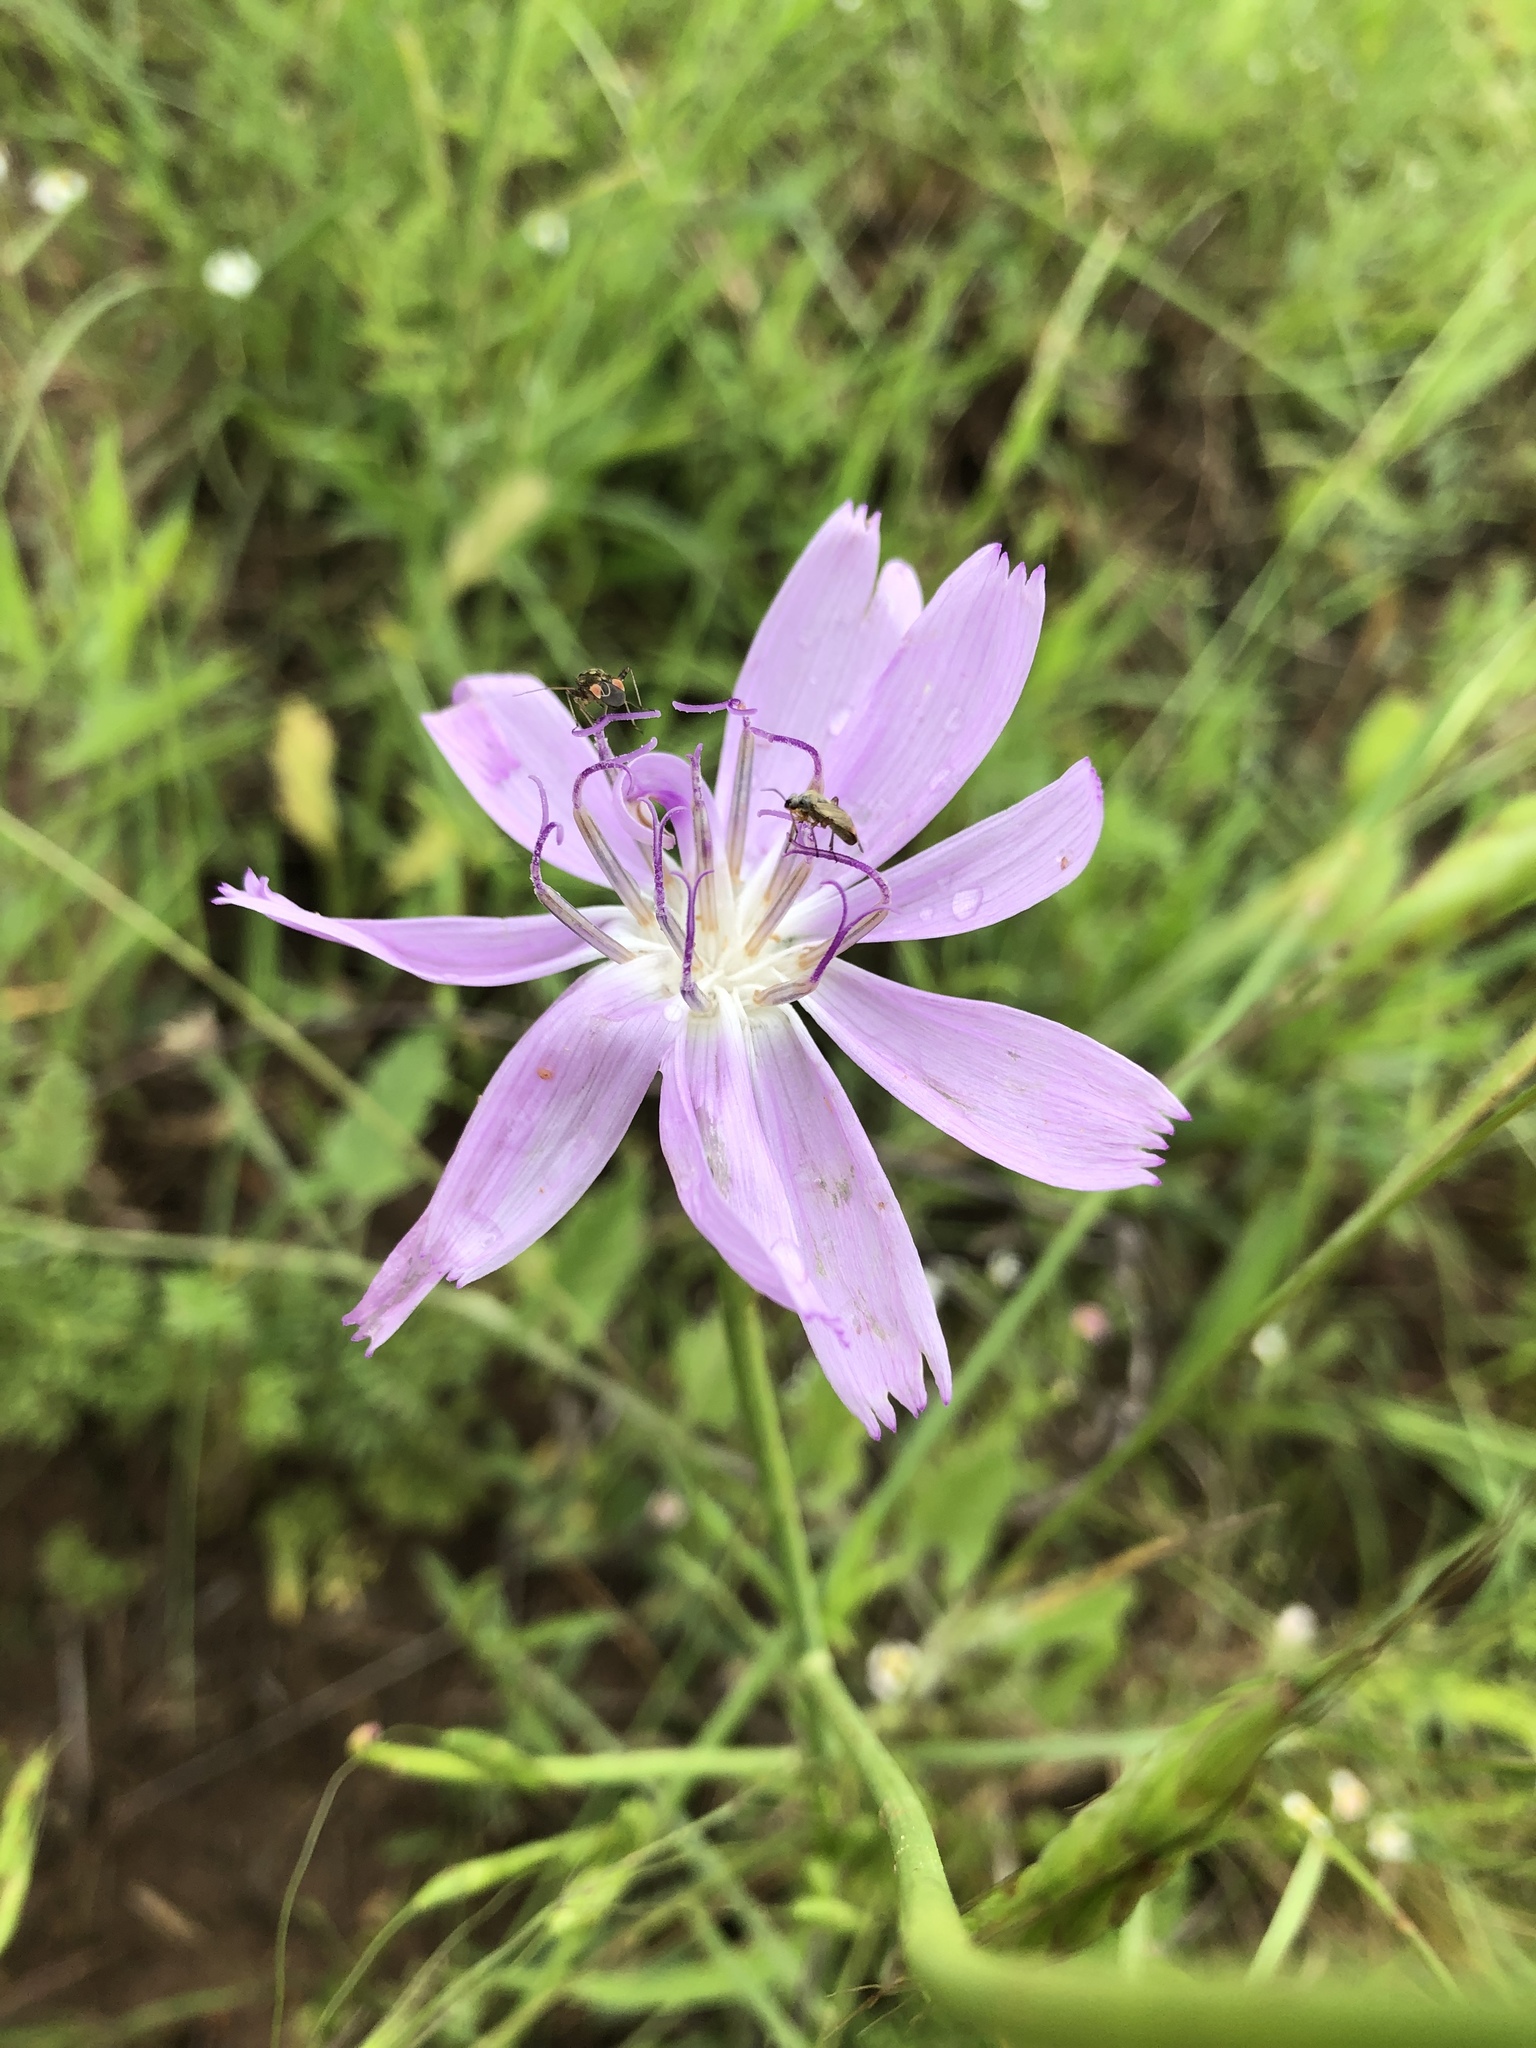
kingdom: Plantae
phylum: Tracheophyta
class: Magnoliopsida
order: Asterales
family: Asteraceae
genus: Lygodesmia
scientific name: Lygodesmia texana
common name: Texas skeleton-plant
